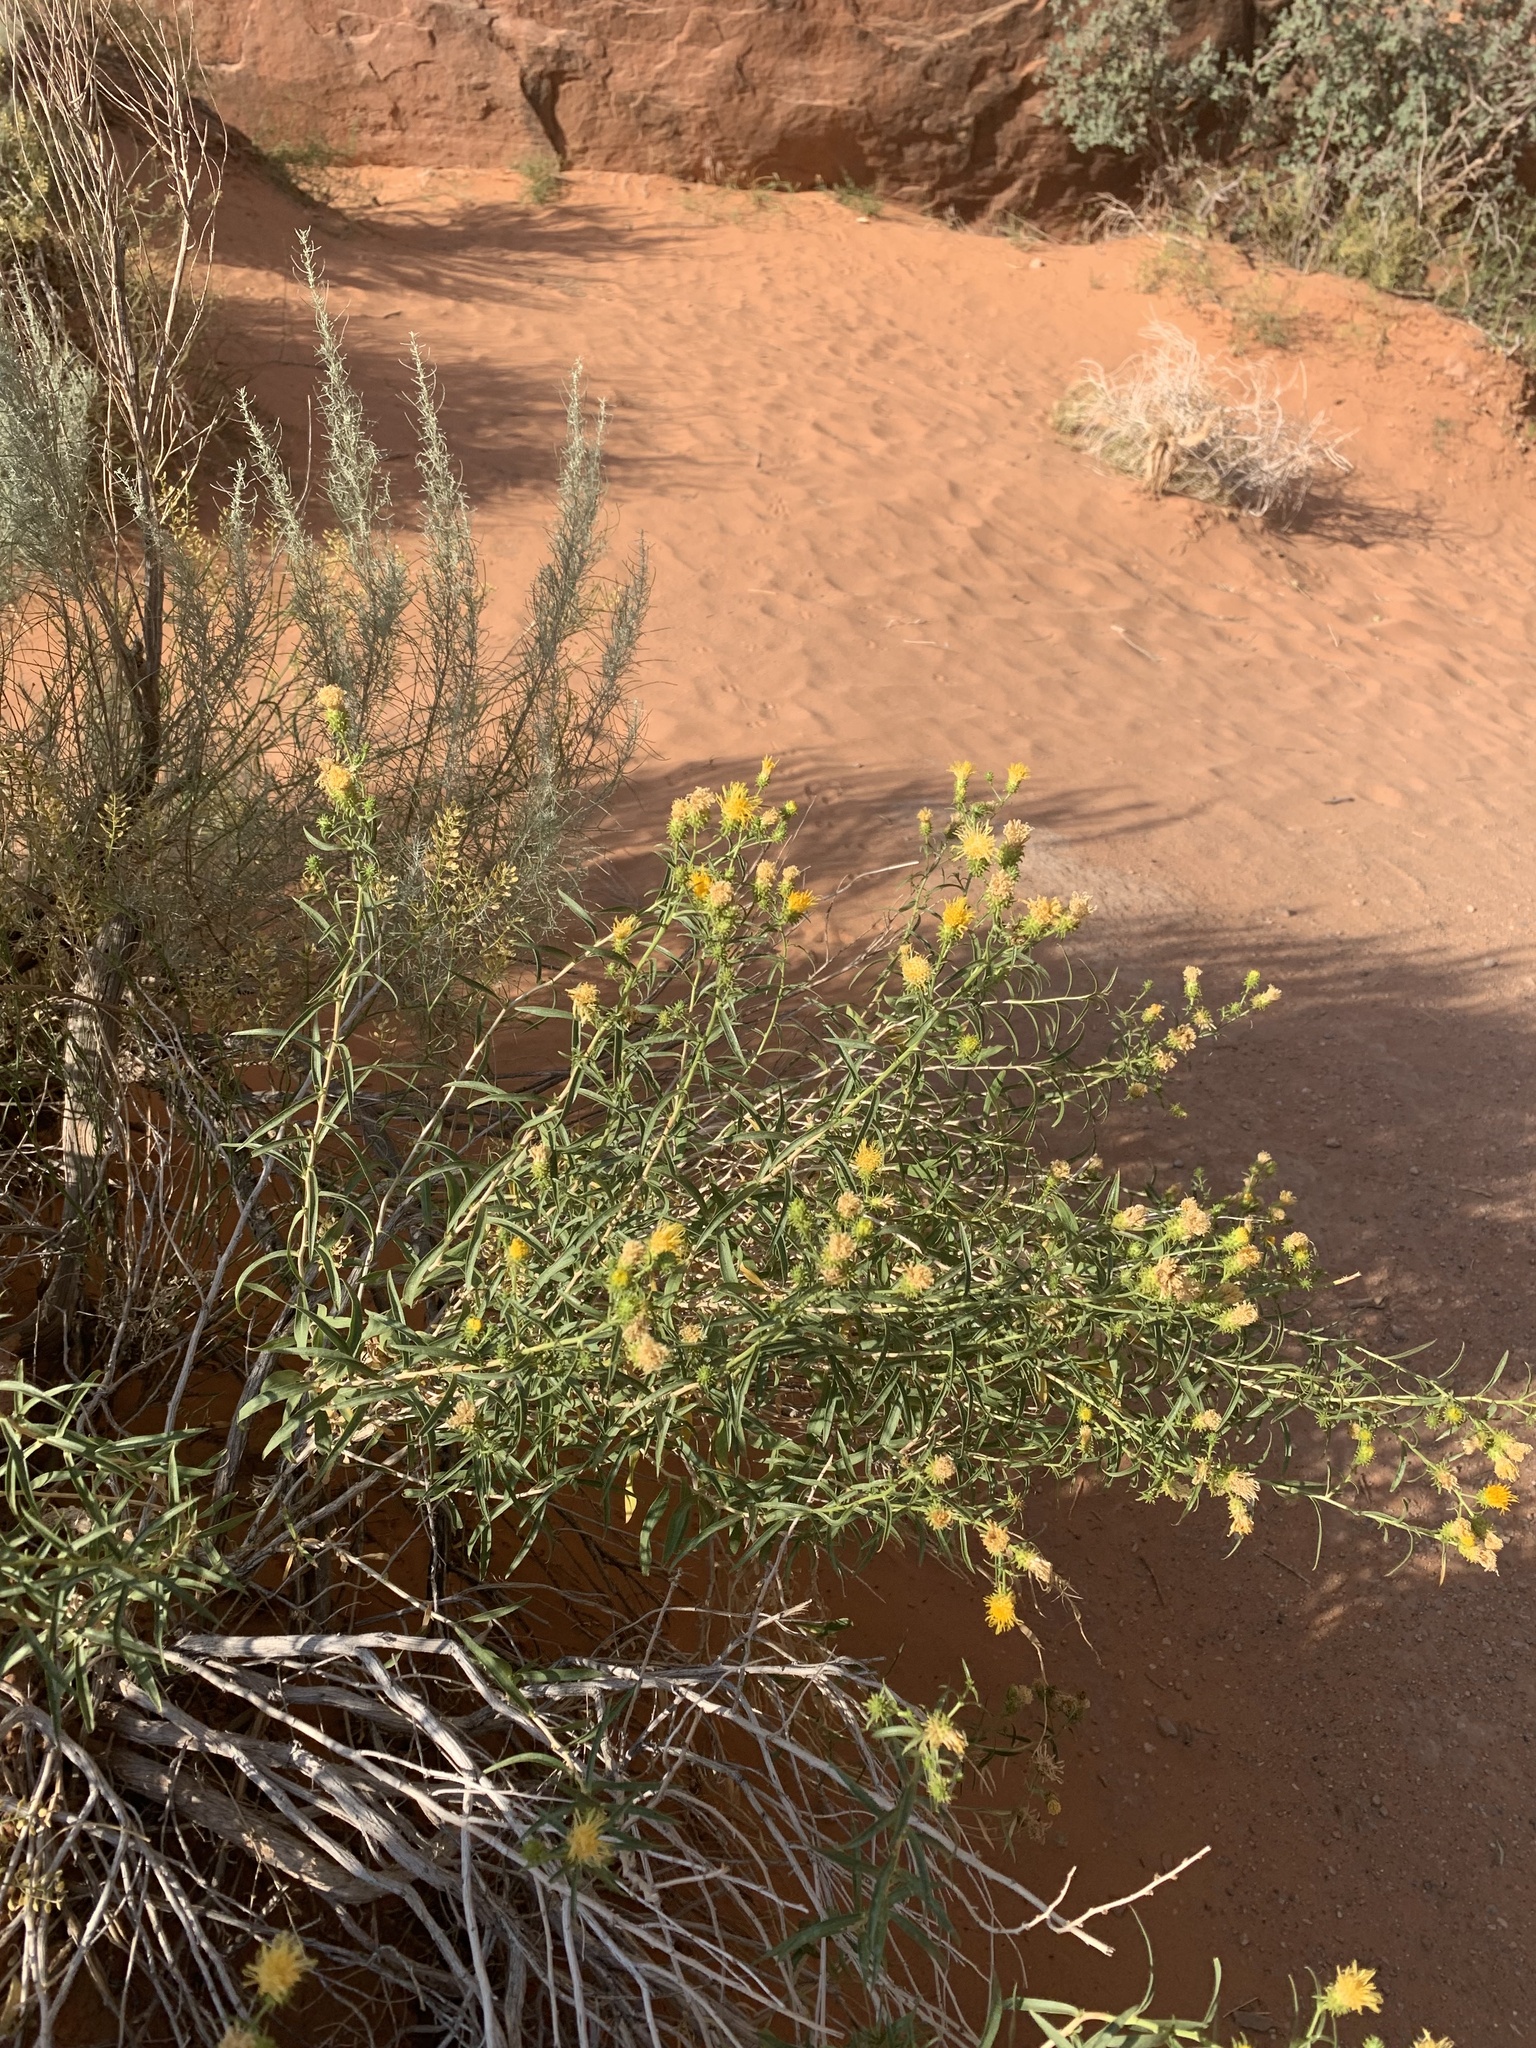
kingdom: Plantae
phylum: Tracheophyta
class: Magnoliopsida
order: Asterales
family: Asteraceae
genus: Chrysothamnus
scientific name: Chrysothamnus stylosus
